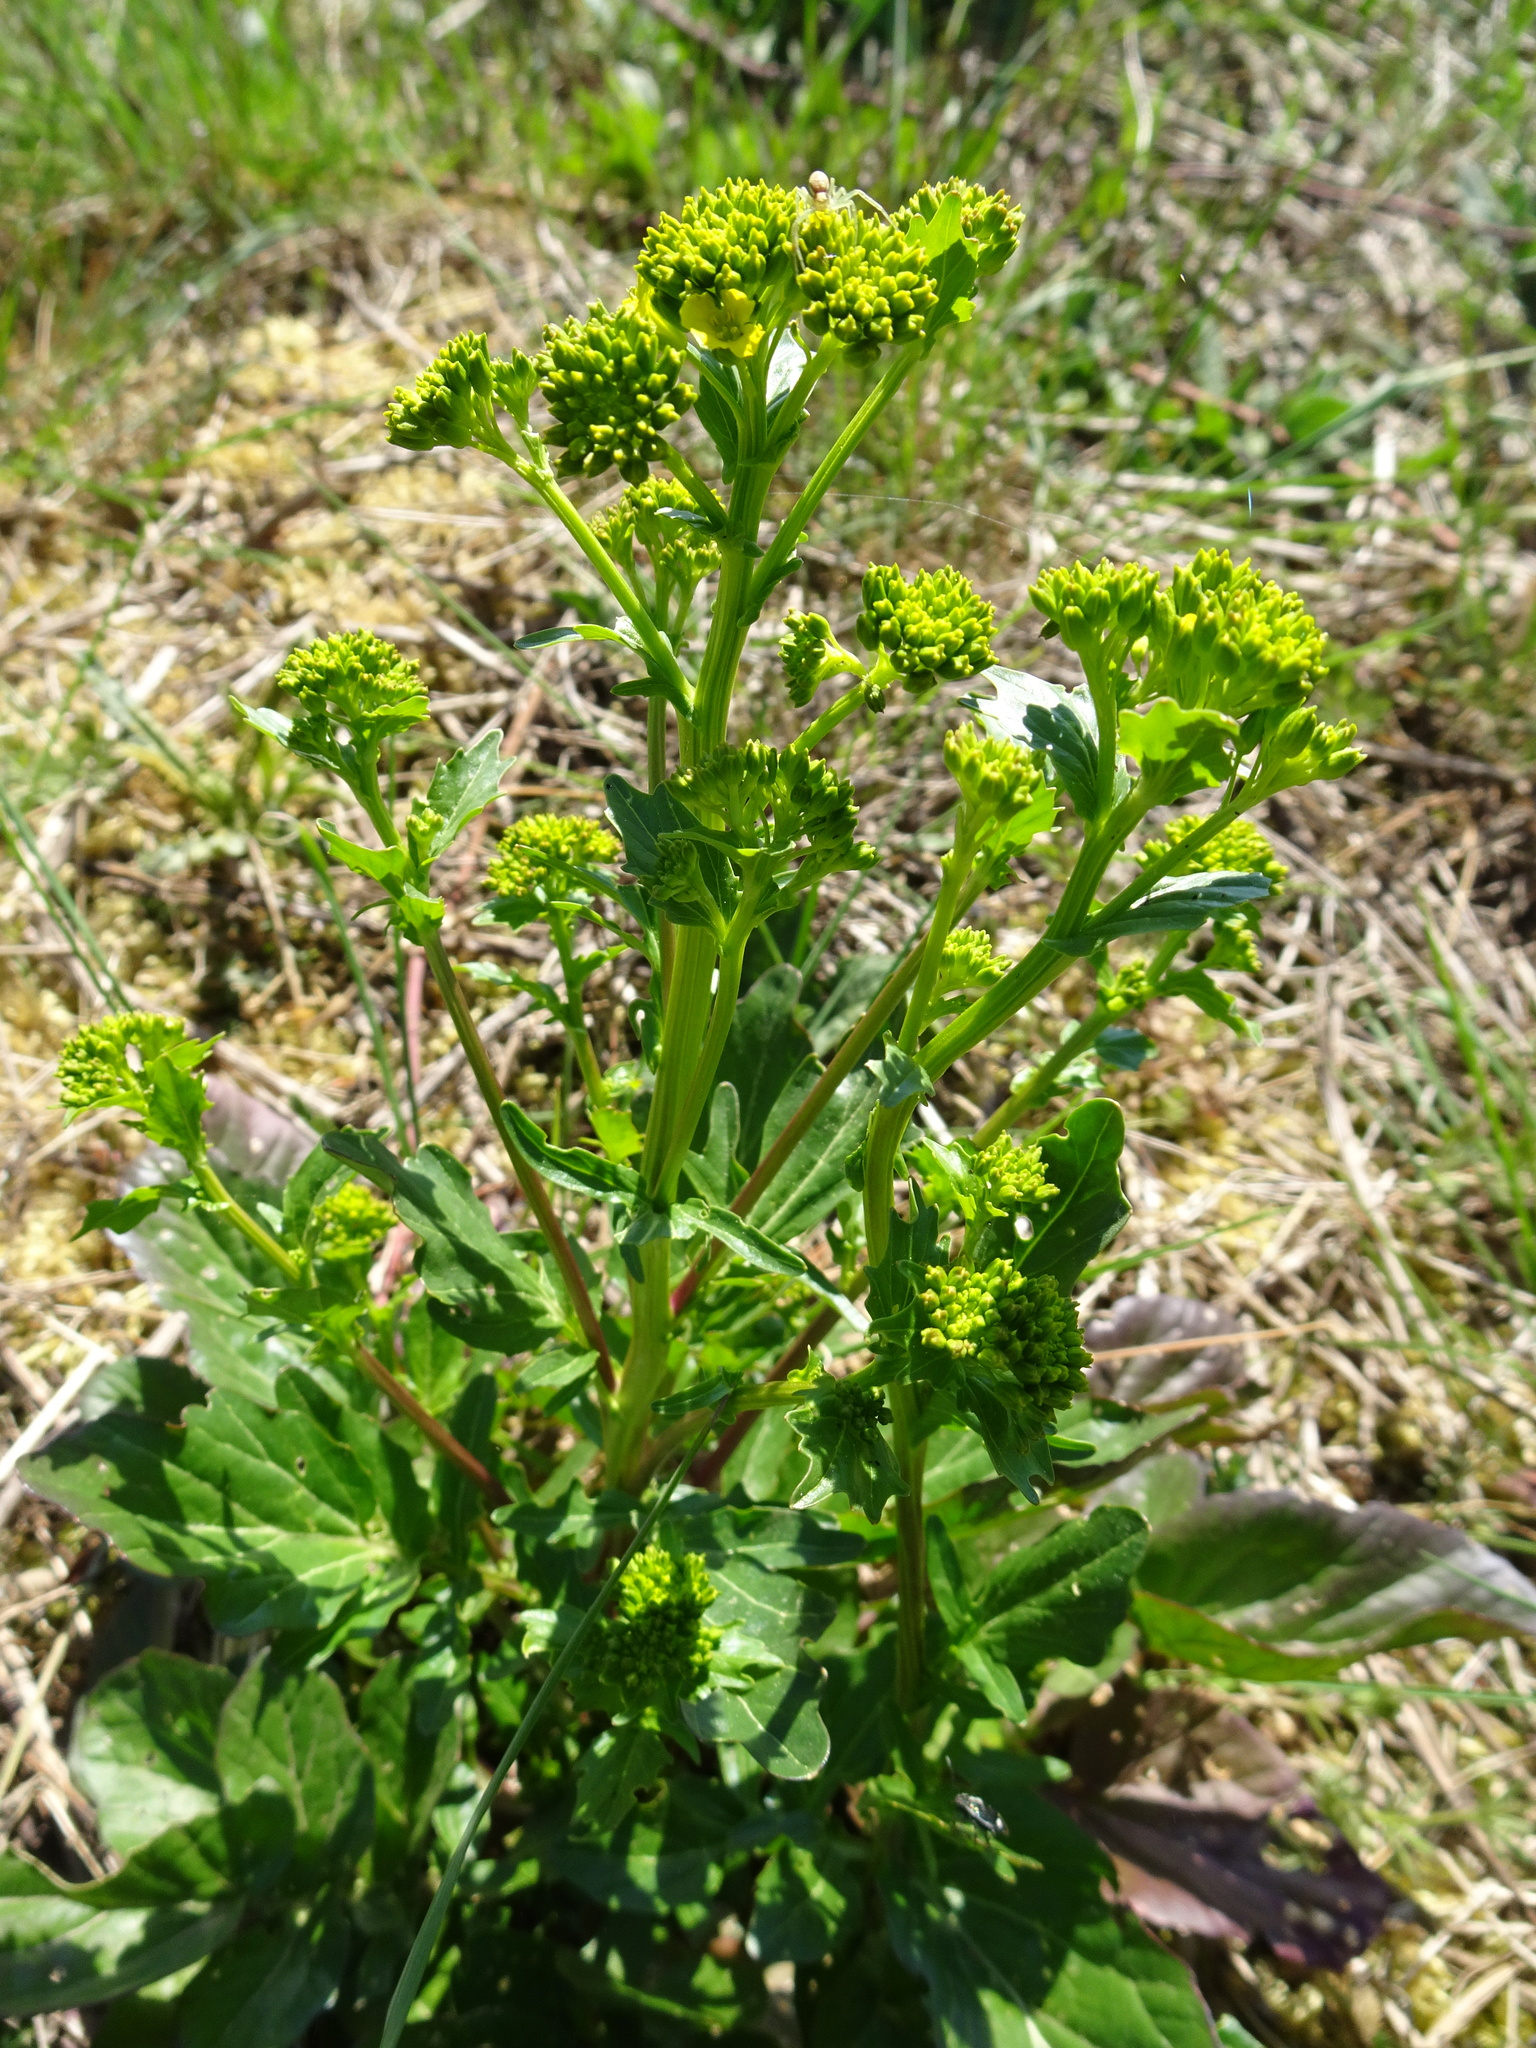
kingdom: Plantae
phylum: Tracheophyta
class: Magnoliopsida
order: Brassicales
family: Brassicaceae
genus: Barbarea
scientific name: Barbarea vulgaris
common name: Cressy-greens
